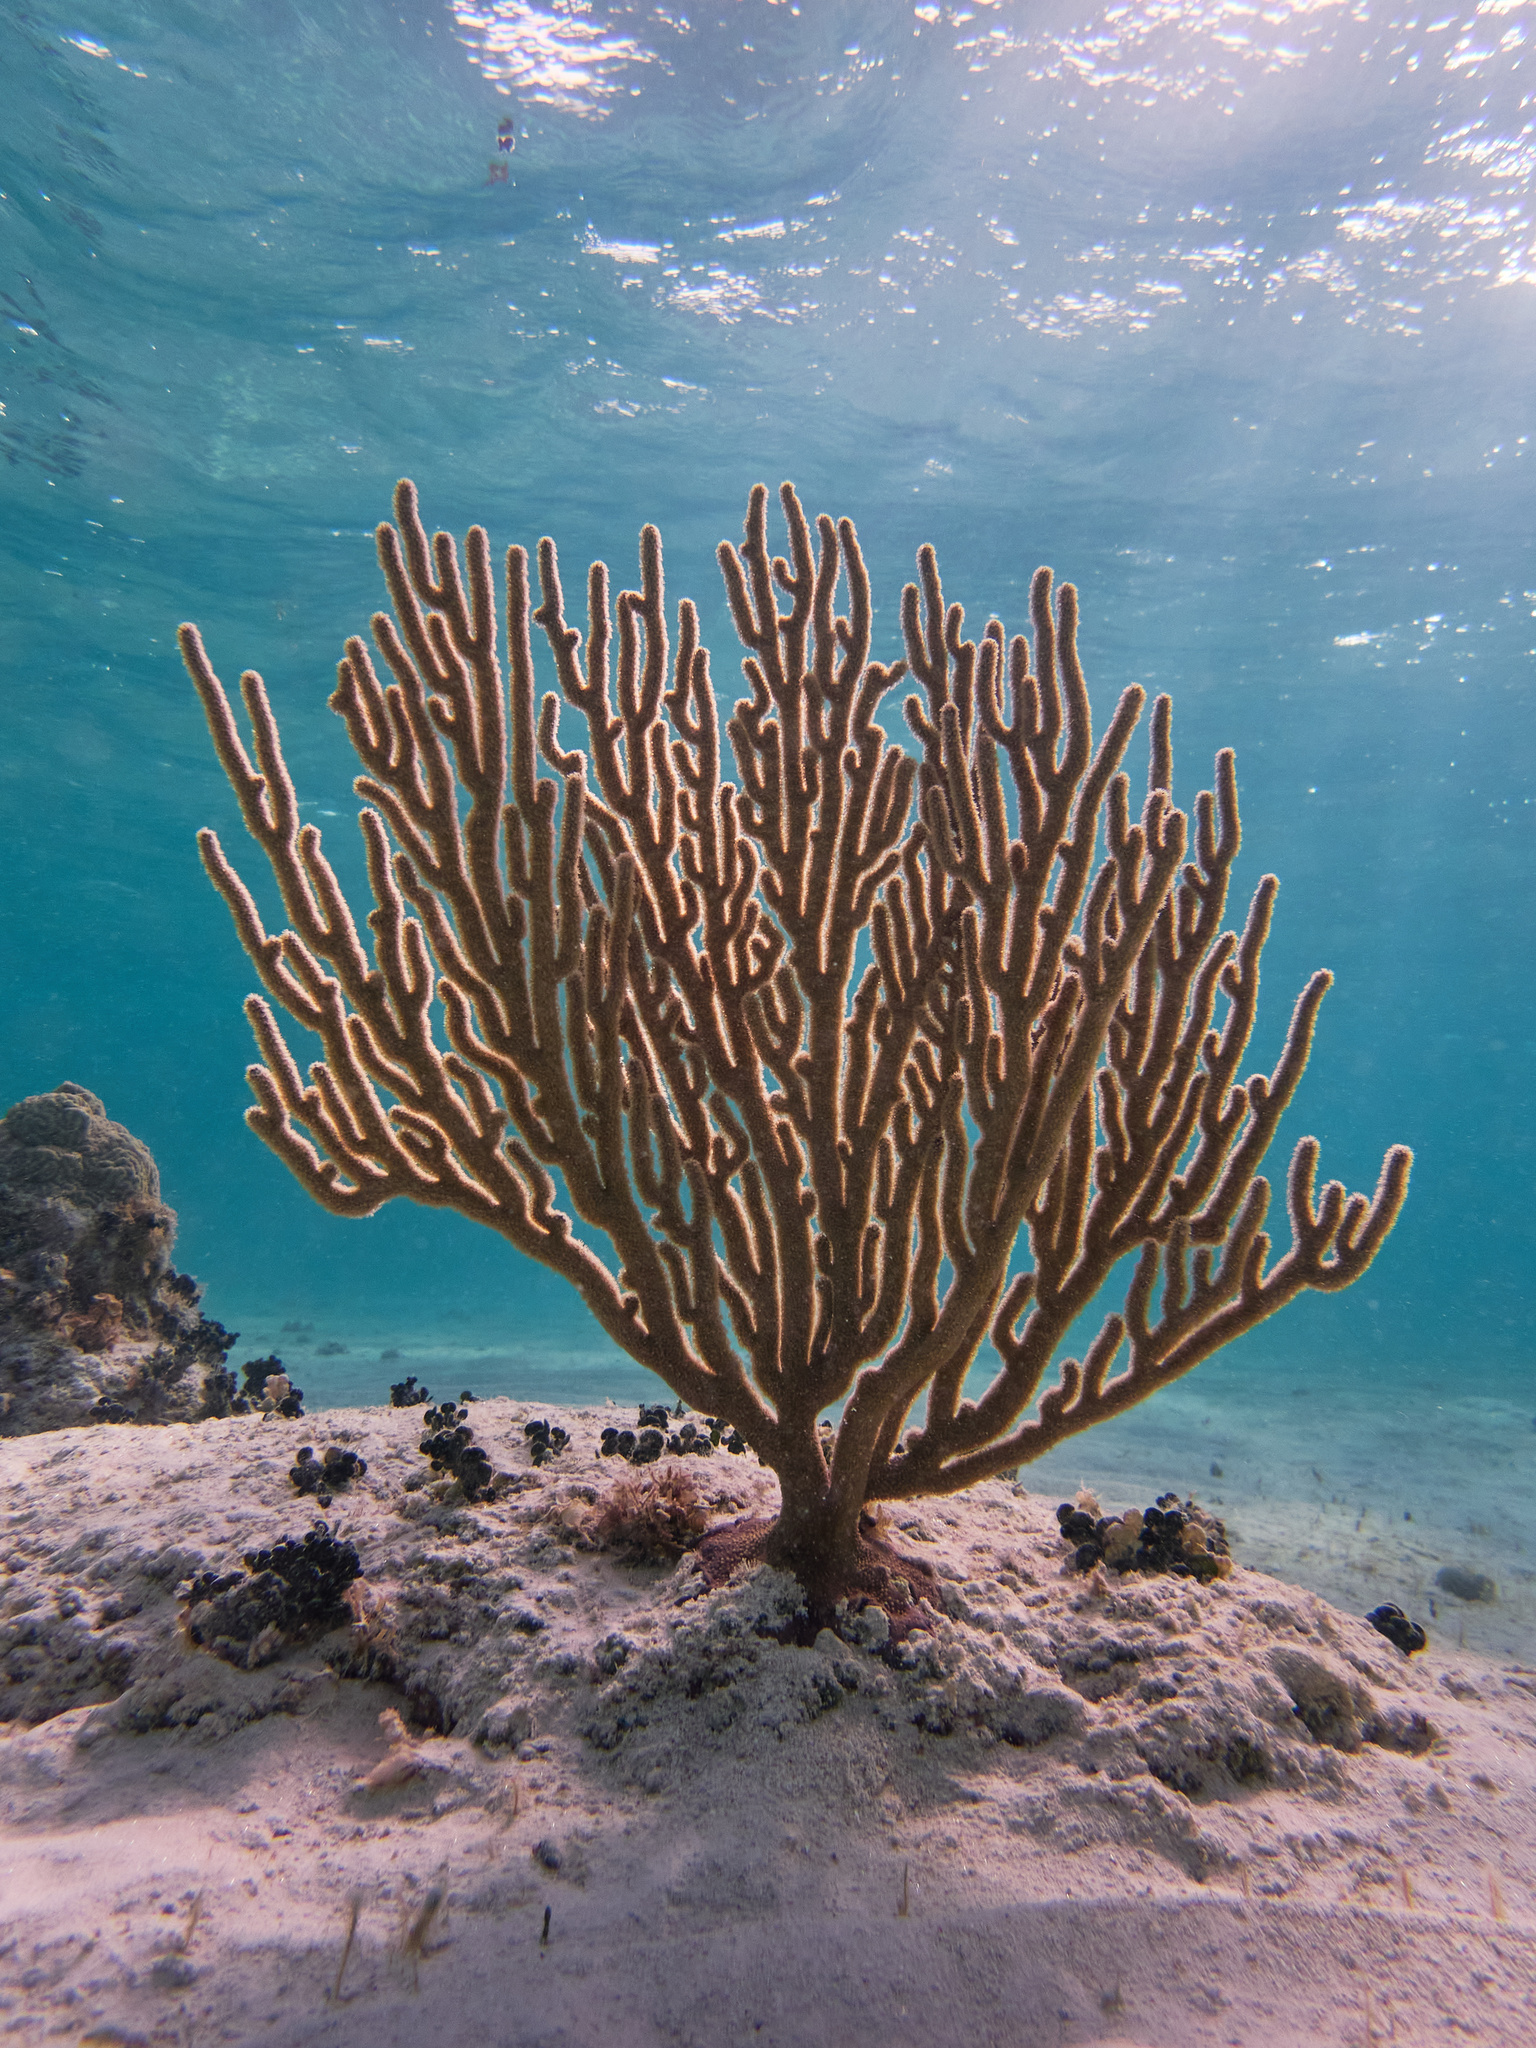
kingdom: Animalia
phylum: Cnidaria
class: Anthozoa
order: Malacalcyonacea
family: Plexauridae
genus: Plexaura
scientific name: Plexaura homomalla
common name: Black sea rod
